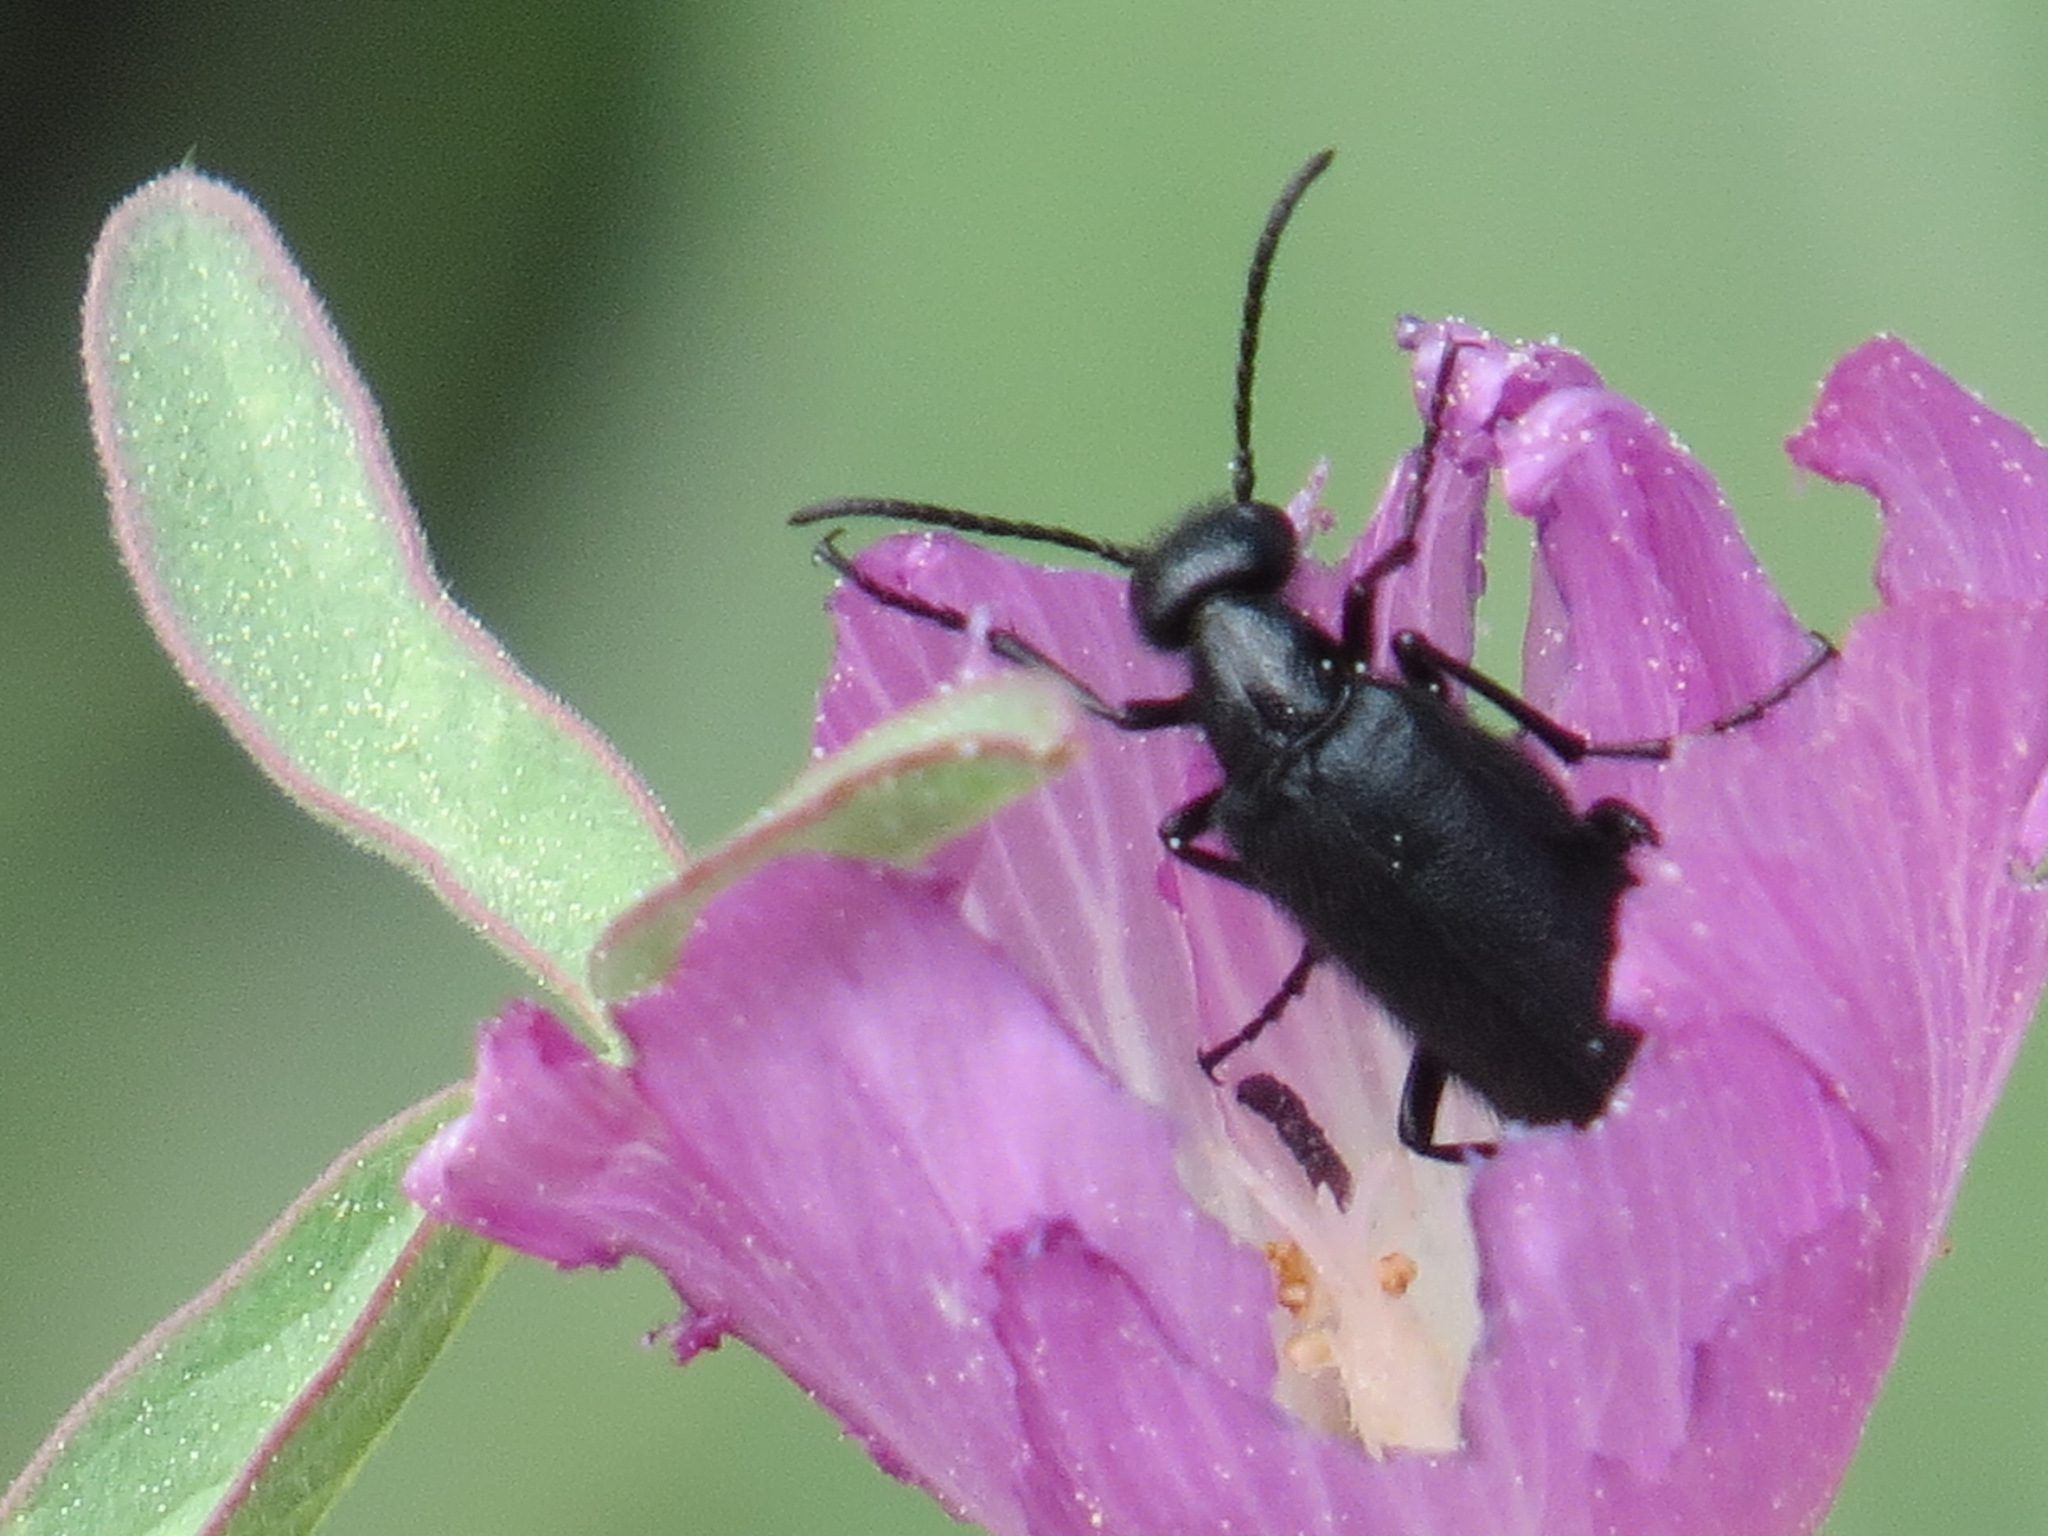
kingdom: Animalia
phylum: Arthropoda
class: Insecta
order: Coleoptera
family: Meloidae
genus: Epicauta
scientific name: Epicauta puncticollis
